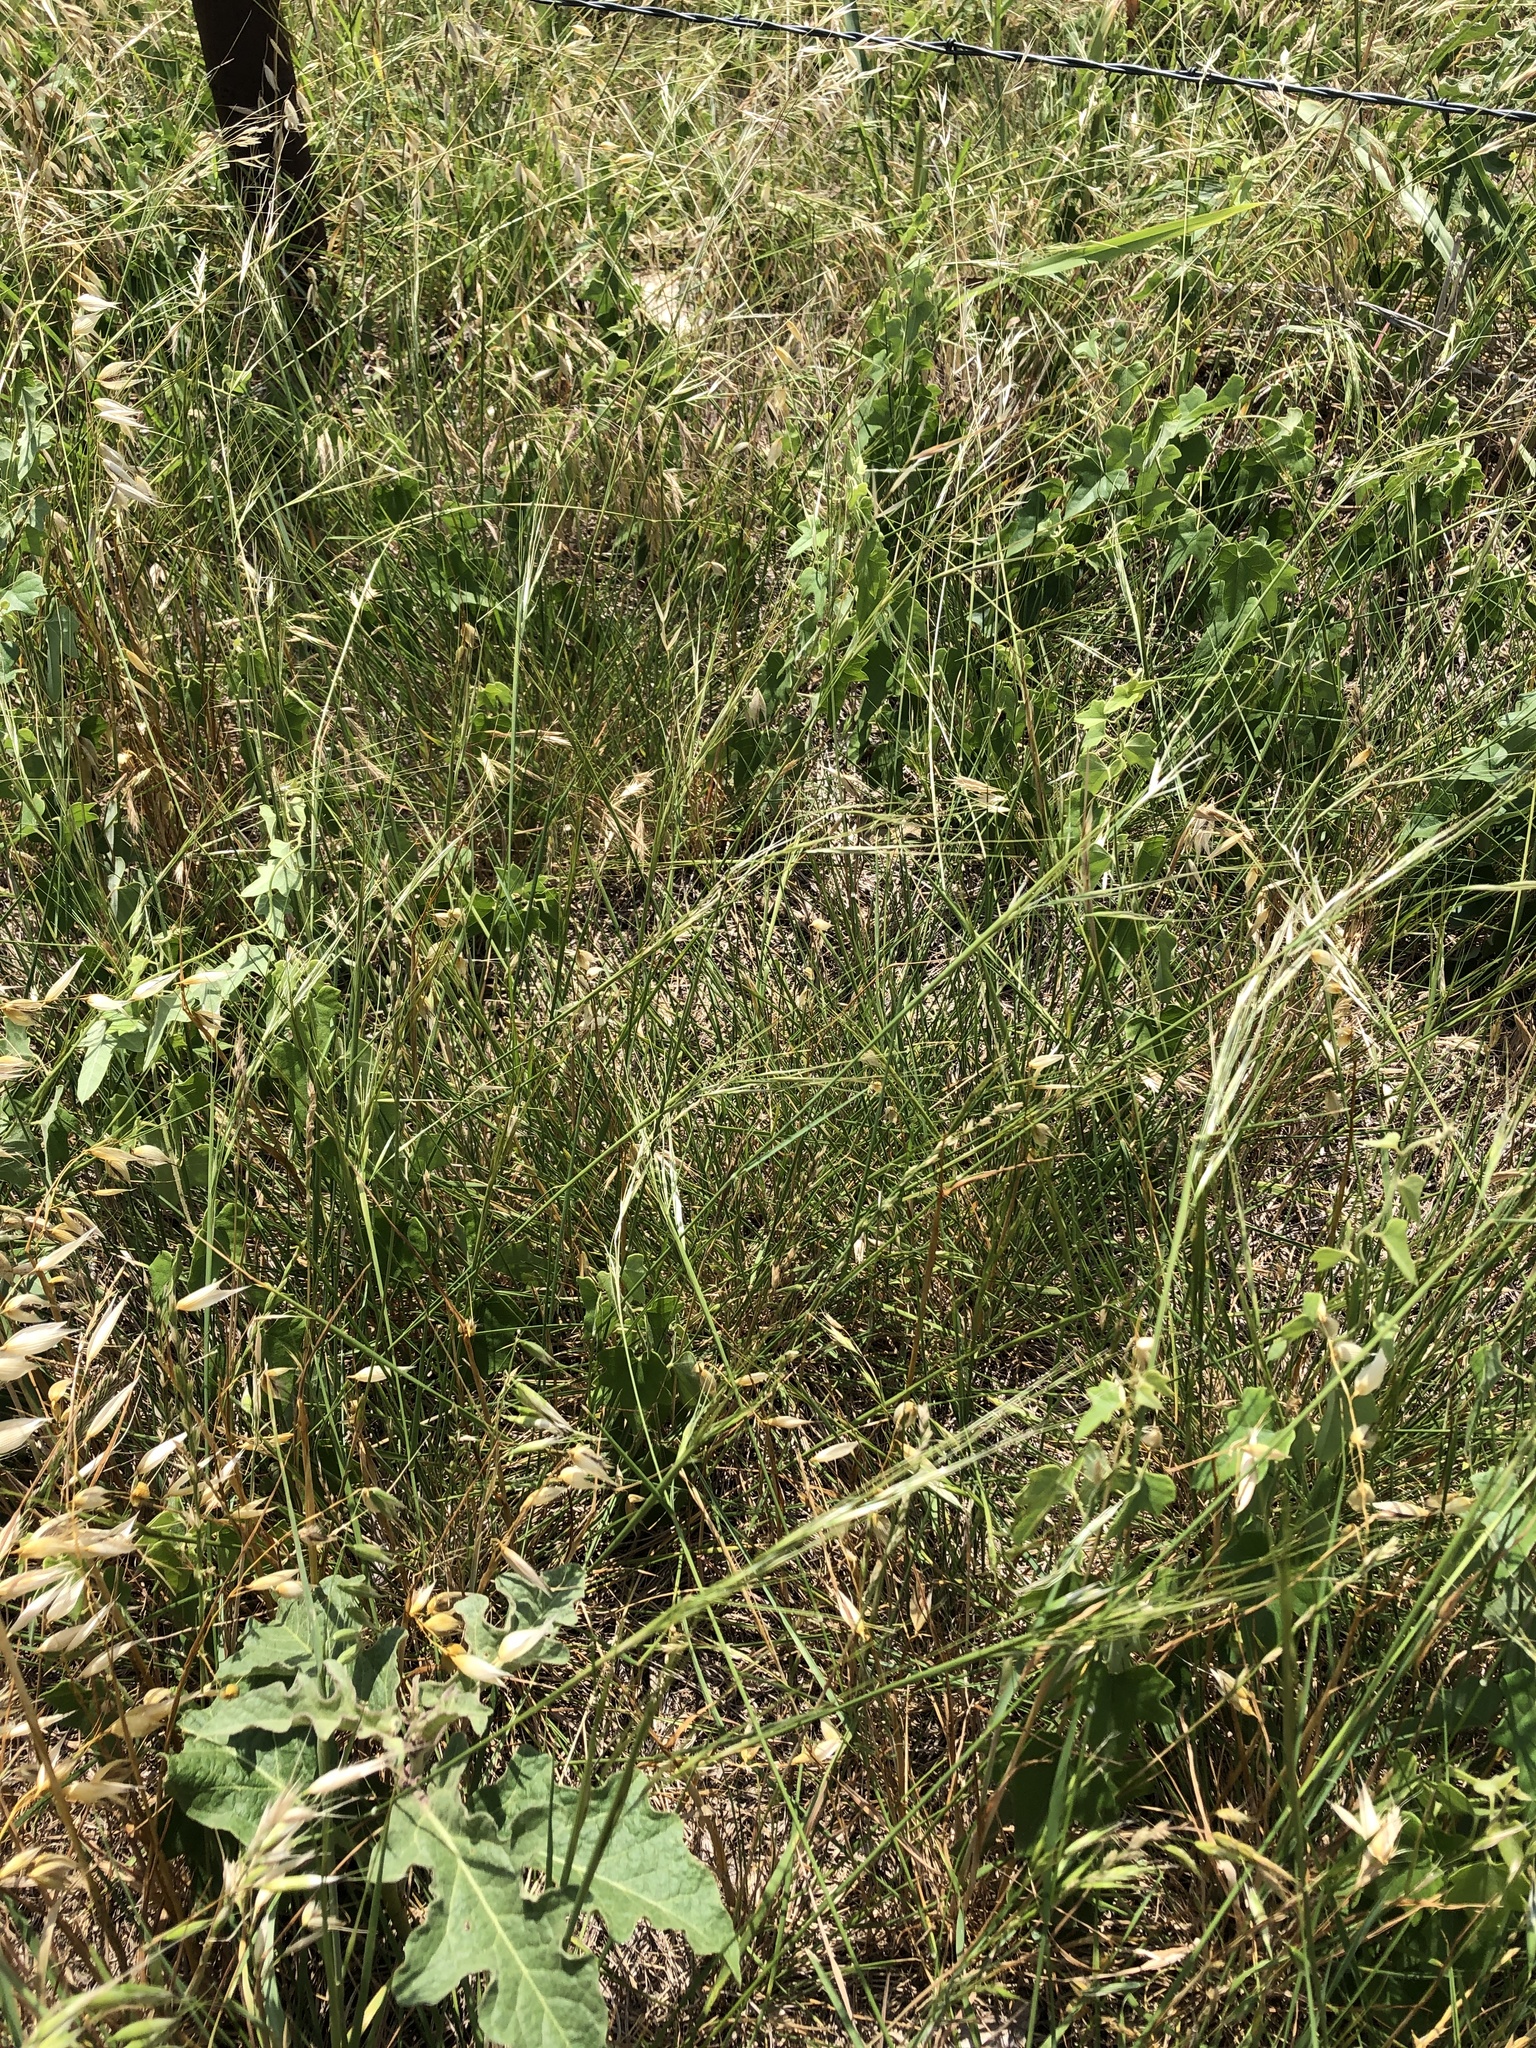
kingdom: Plantae
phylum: Tracheophyta
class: Liliopsida
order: Poales
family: Poaceae
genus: Nassella
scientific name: Nassella leucotricha
